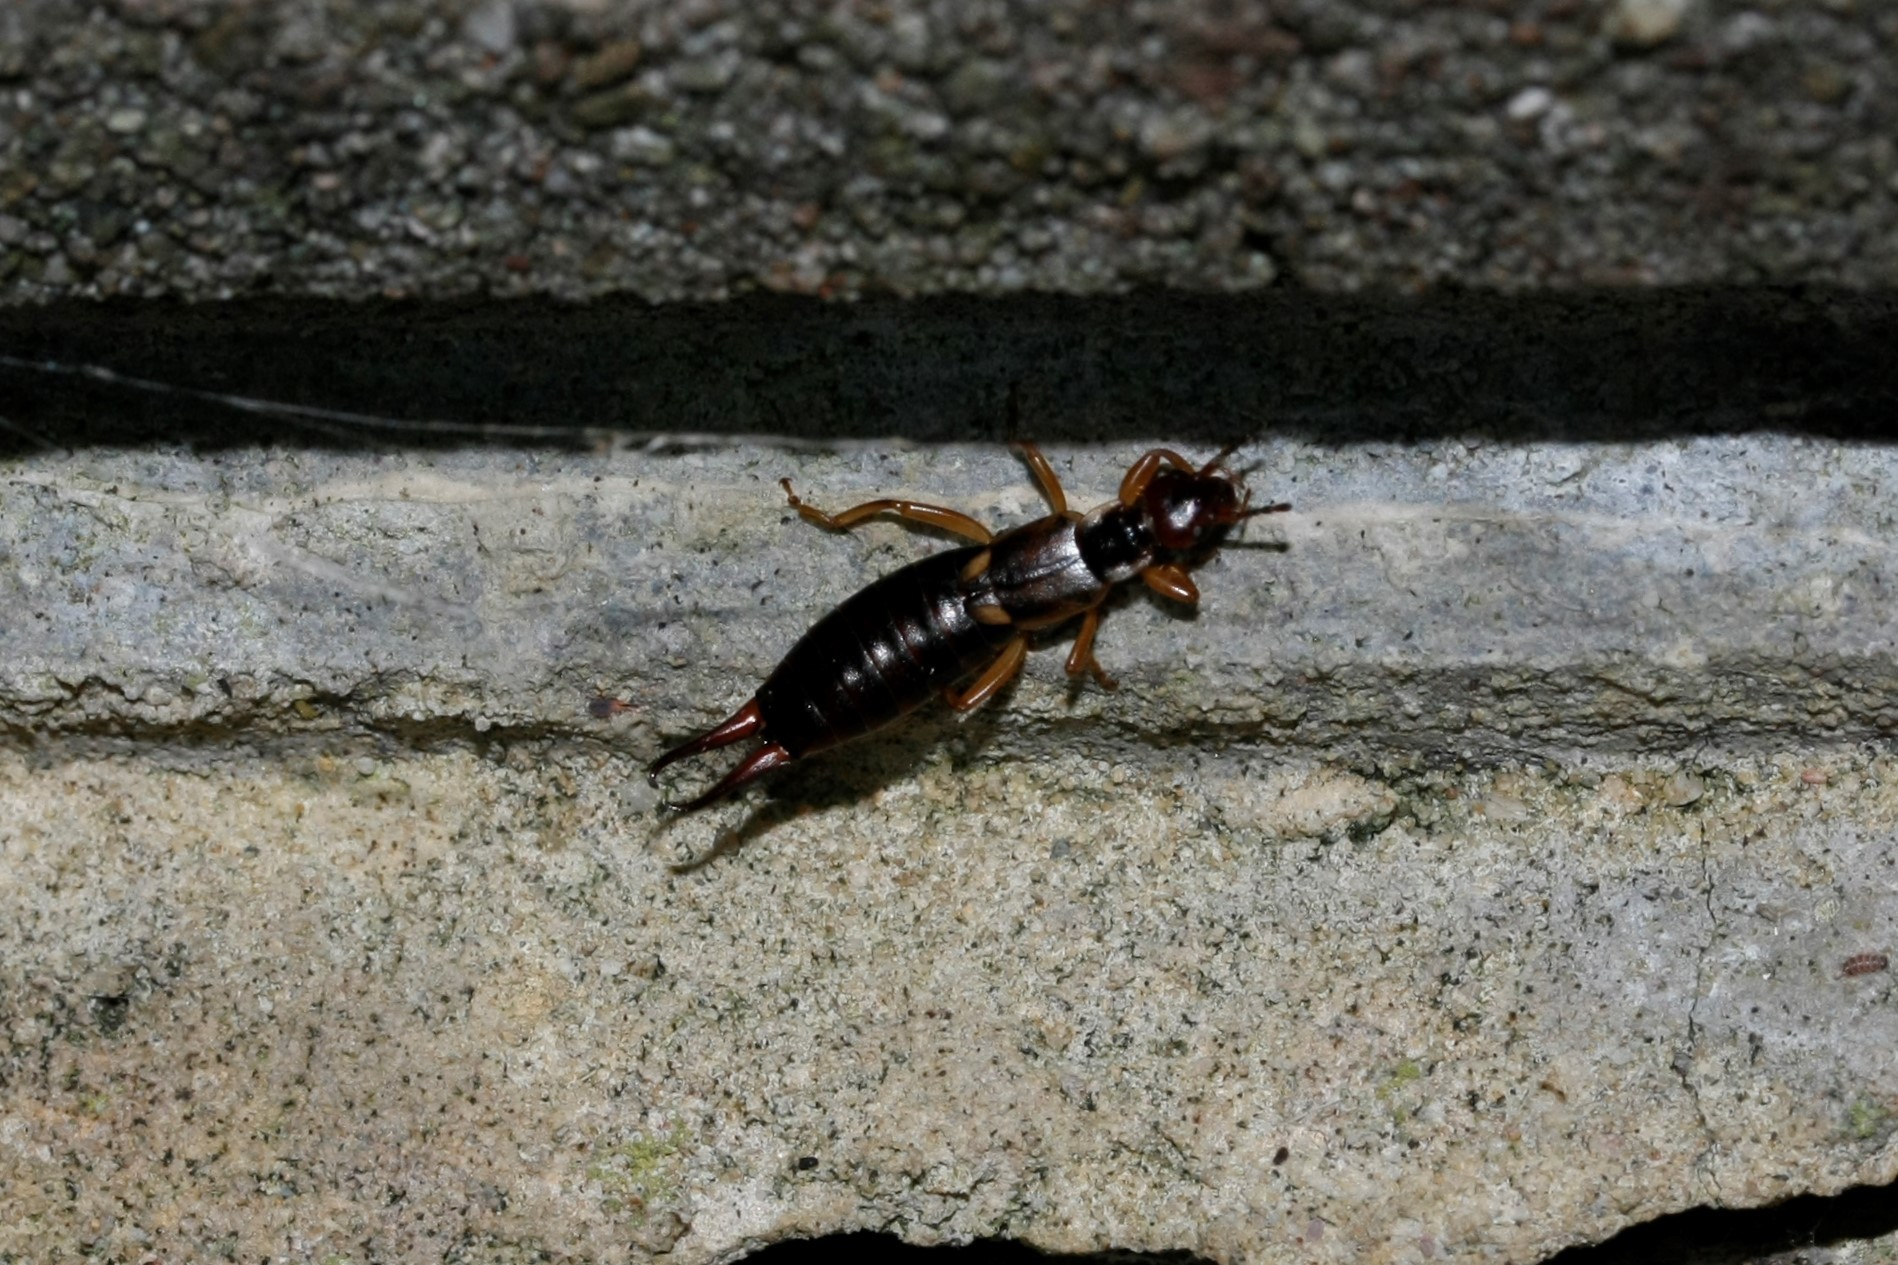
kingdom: Animalia
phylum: Arthropoda
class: Insecta
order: Dermaptera
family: Forficulidae
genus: Forficula
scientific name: Forficula
